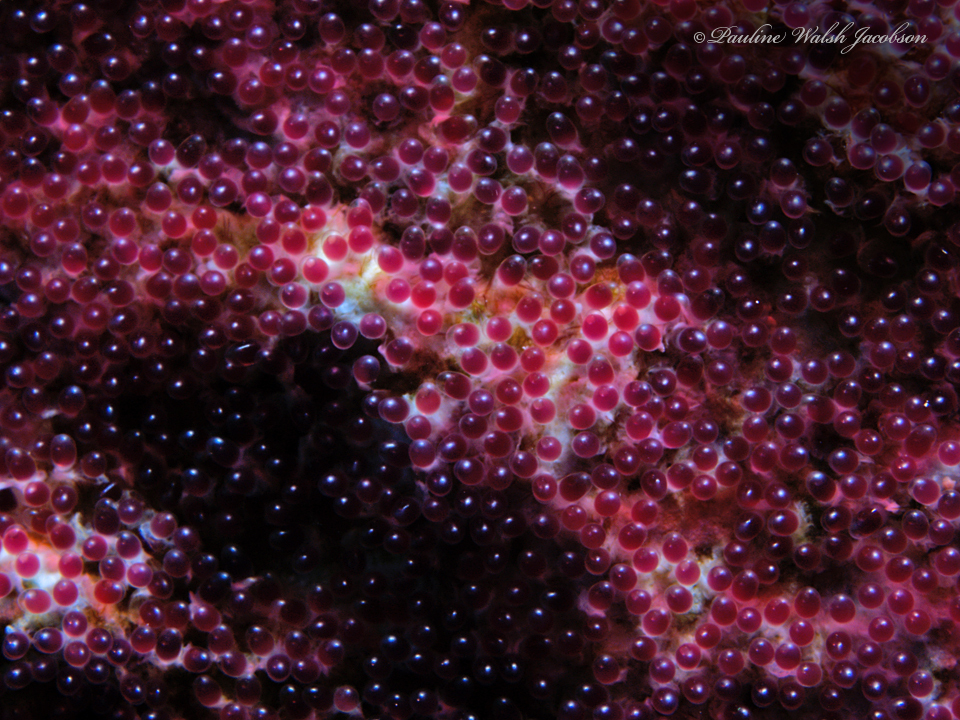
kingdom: Animalia
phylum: Chordata
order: Perciformes
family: Pomacentridae
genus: Abudefduf
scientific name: Abudefduf saxatilis
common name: Sergeant major
